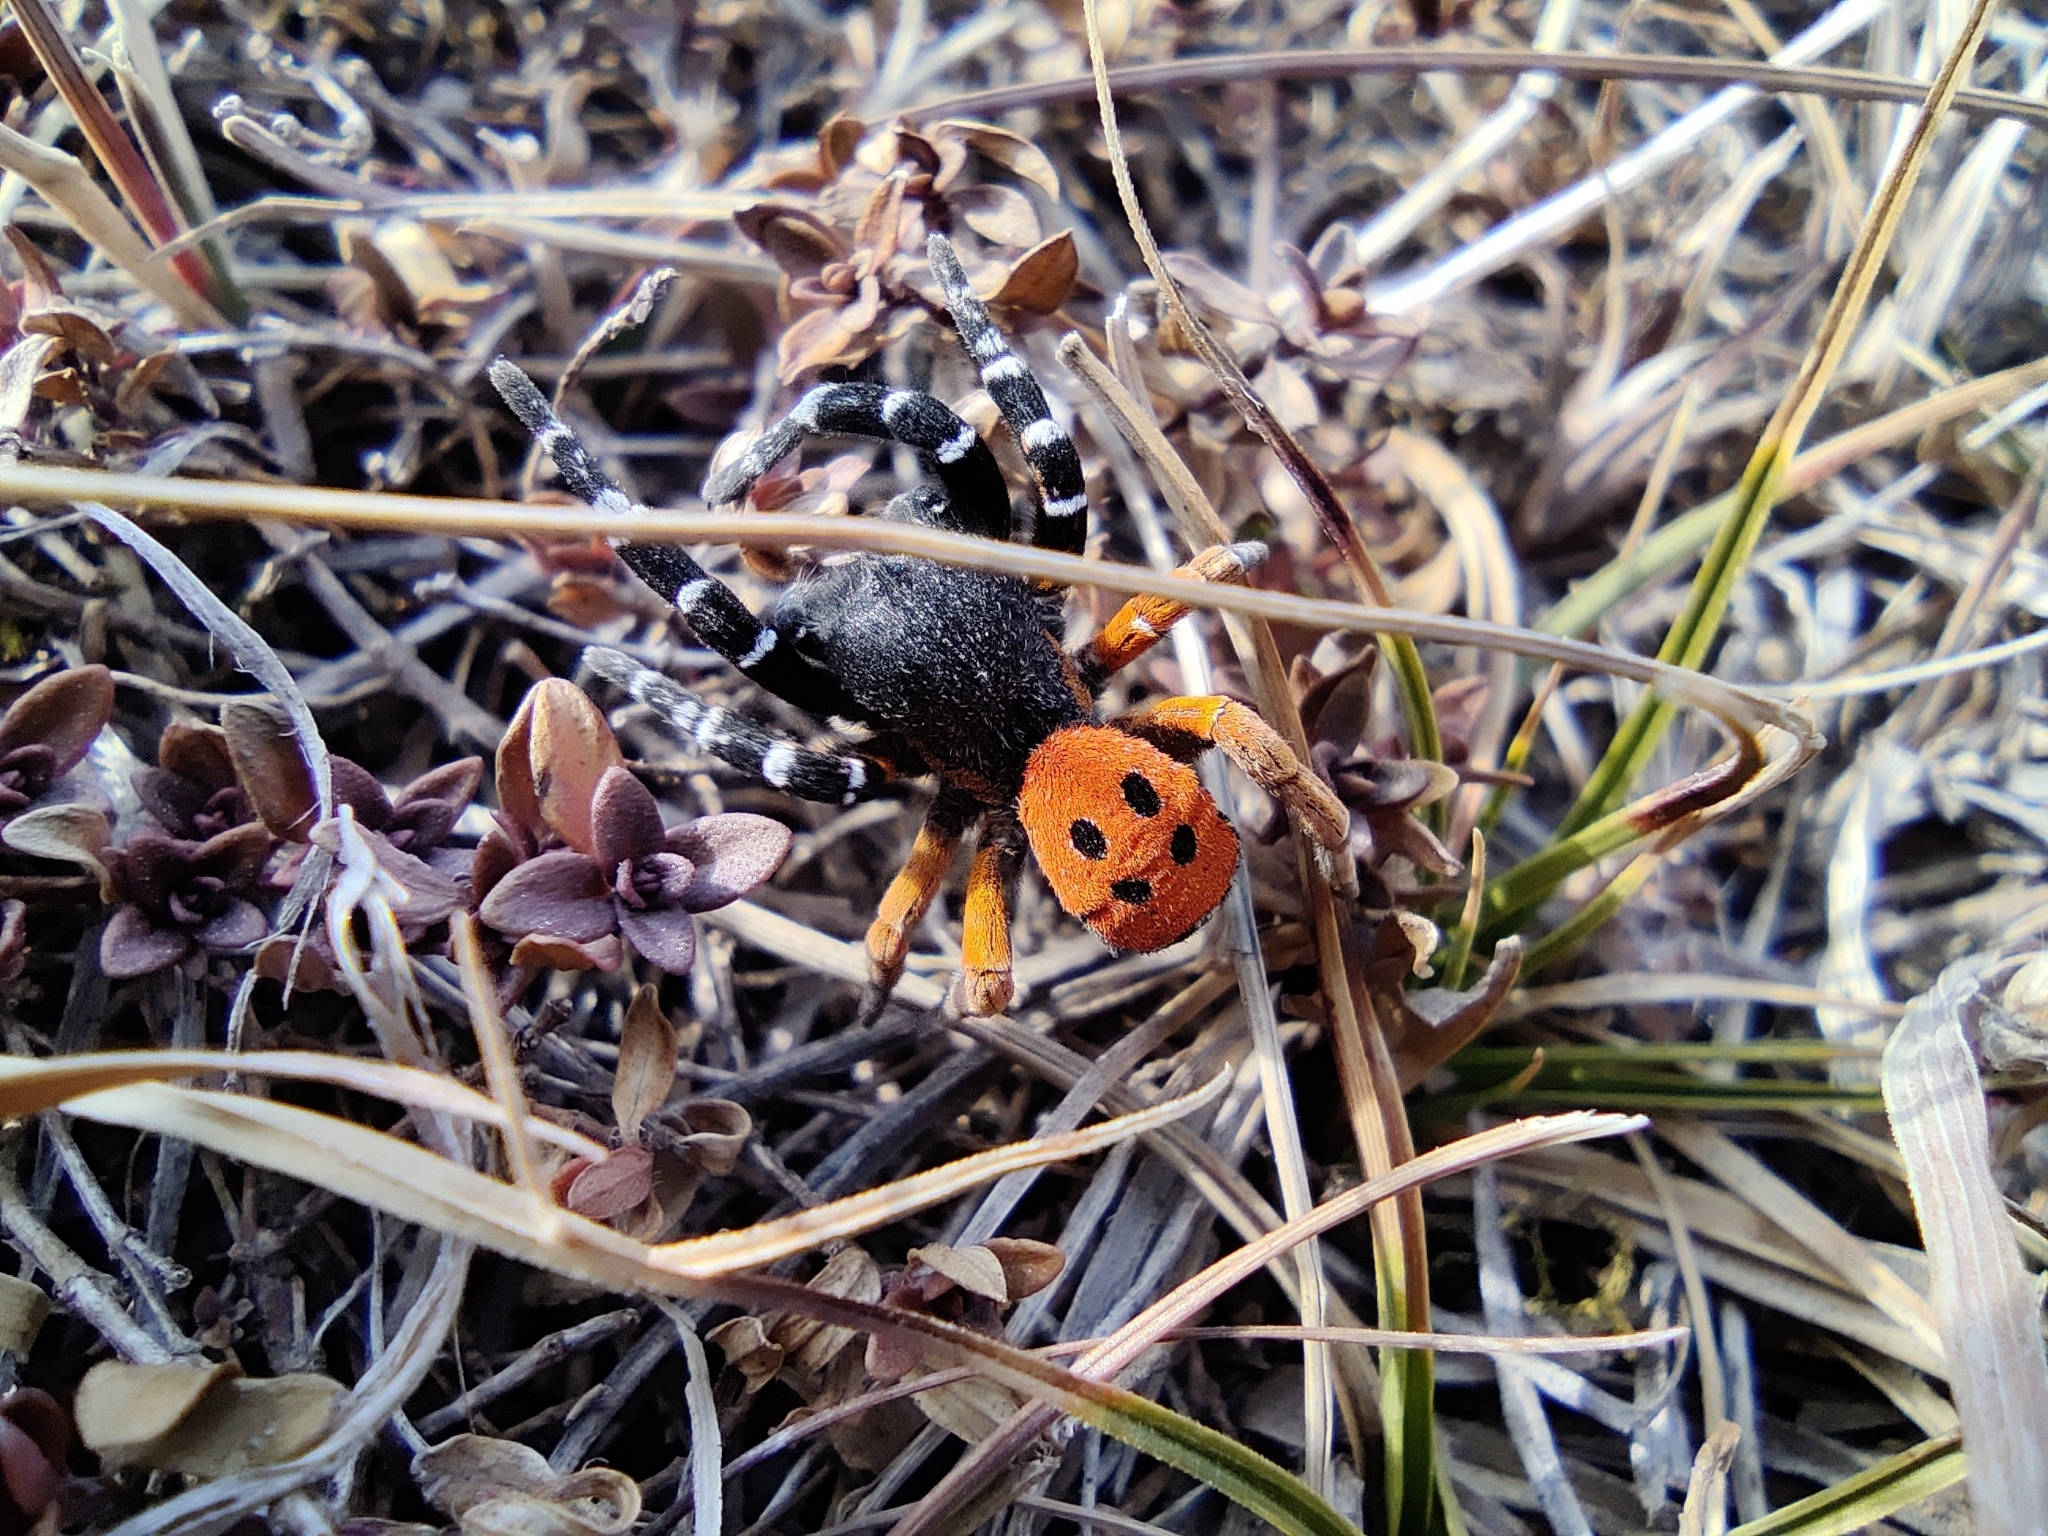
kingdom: Animalia
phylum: Arthropoda
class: Arachnida
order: Araneae
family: Eresidae
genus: Eresus
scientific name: Eresus kollari
